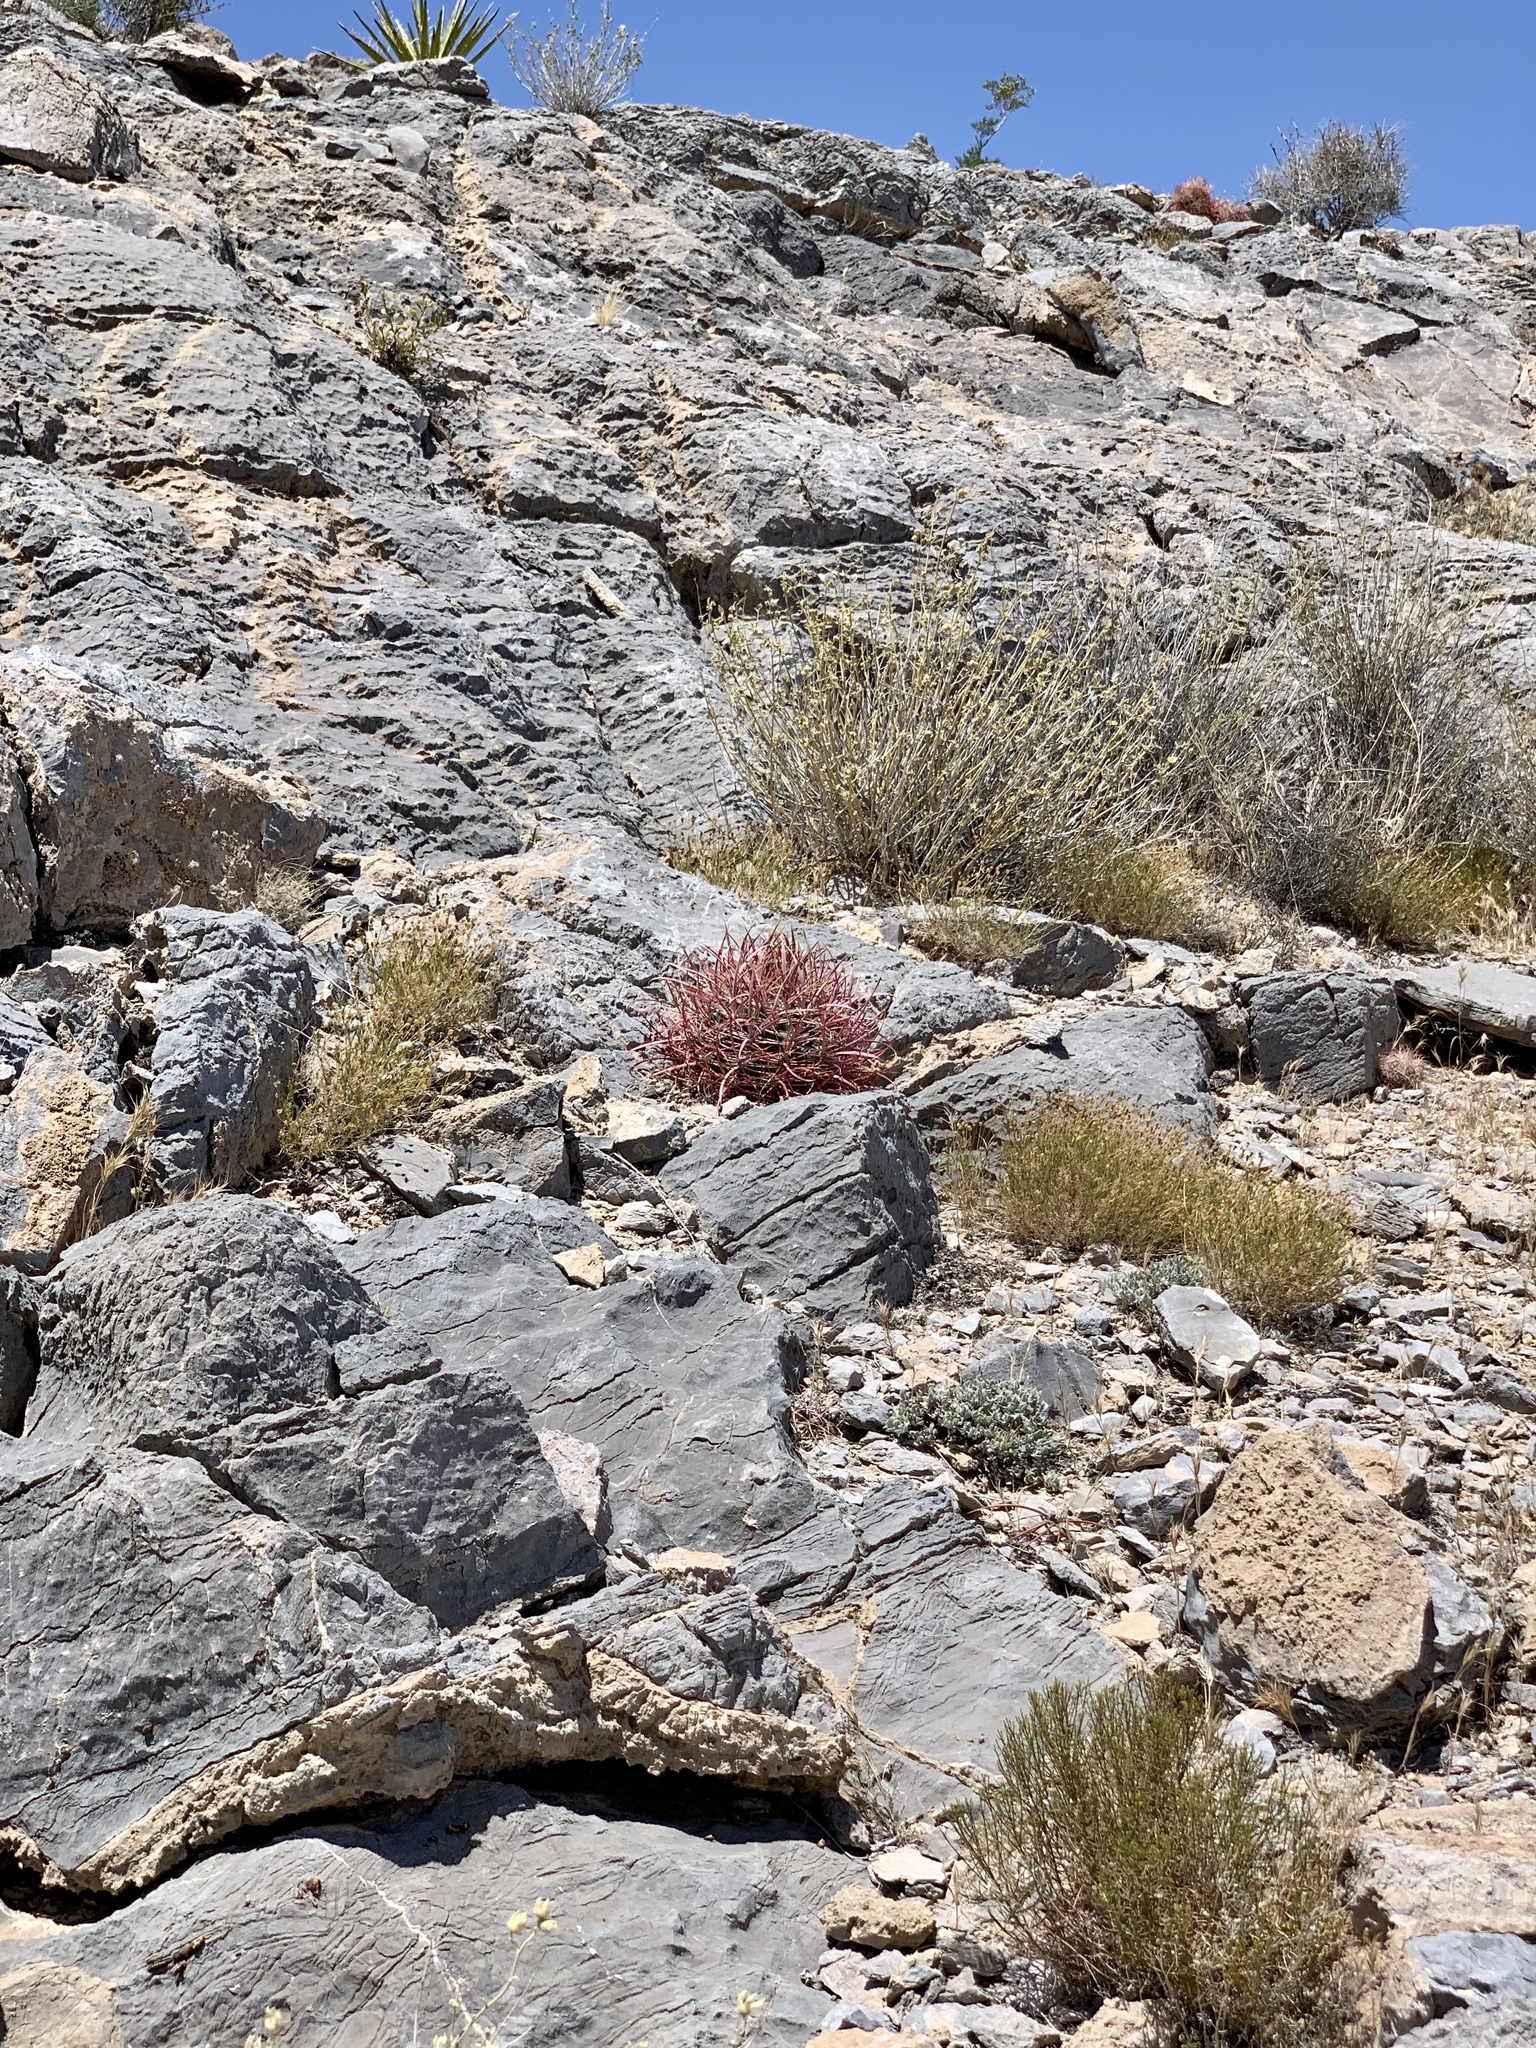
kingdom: Plantae
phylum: Tracheophyta
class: Magnoliopsida
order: Caryophyllales
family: Cactaceae
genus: Ferocactus
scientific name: Ferocactus cylindraceus
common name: California barrel cactus
